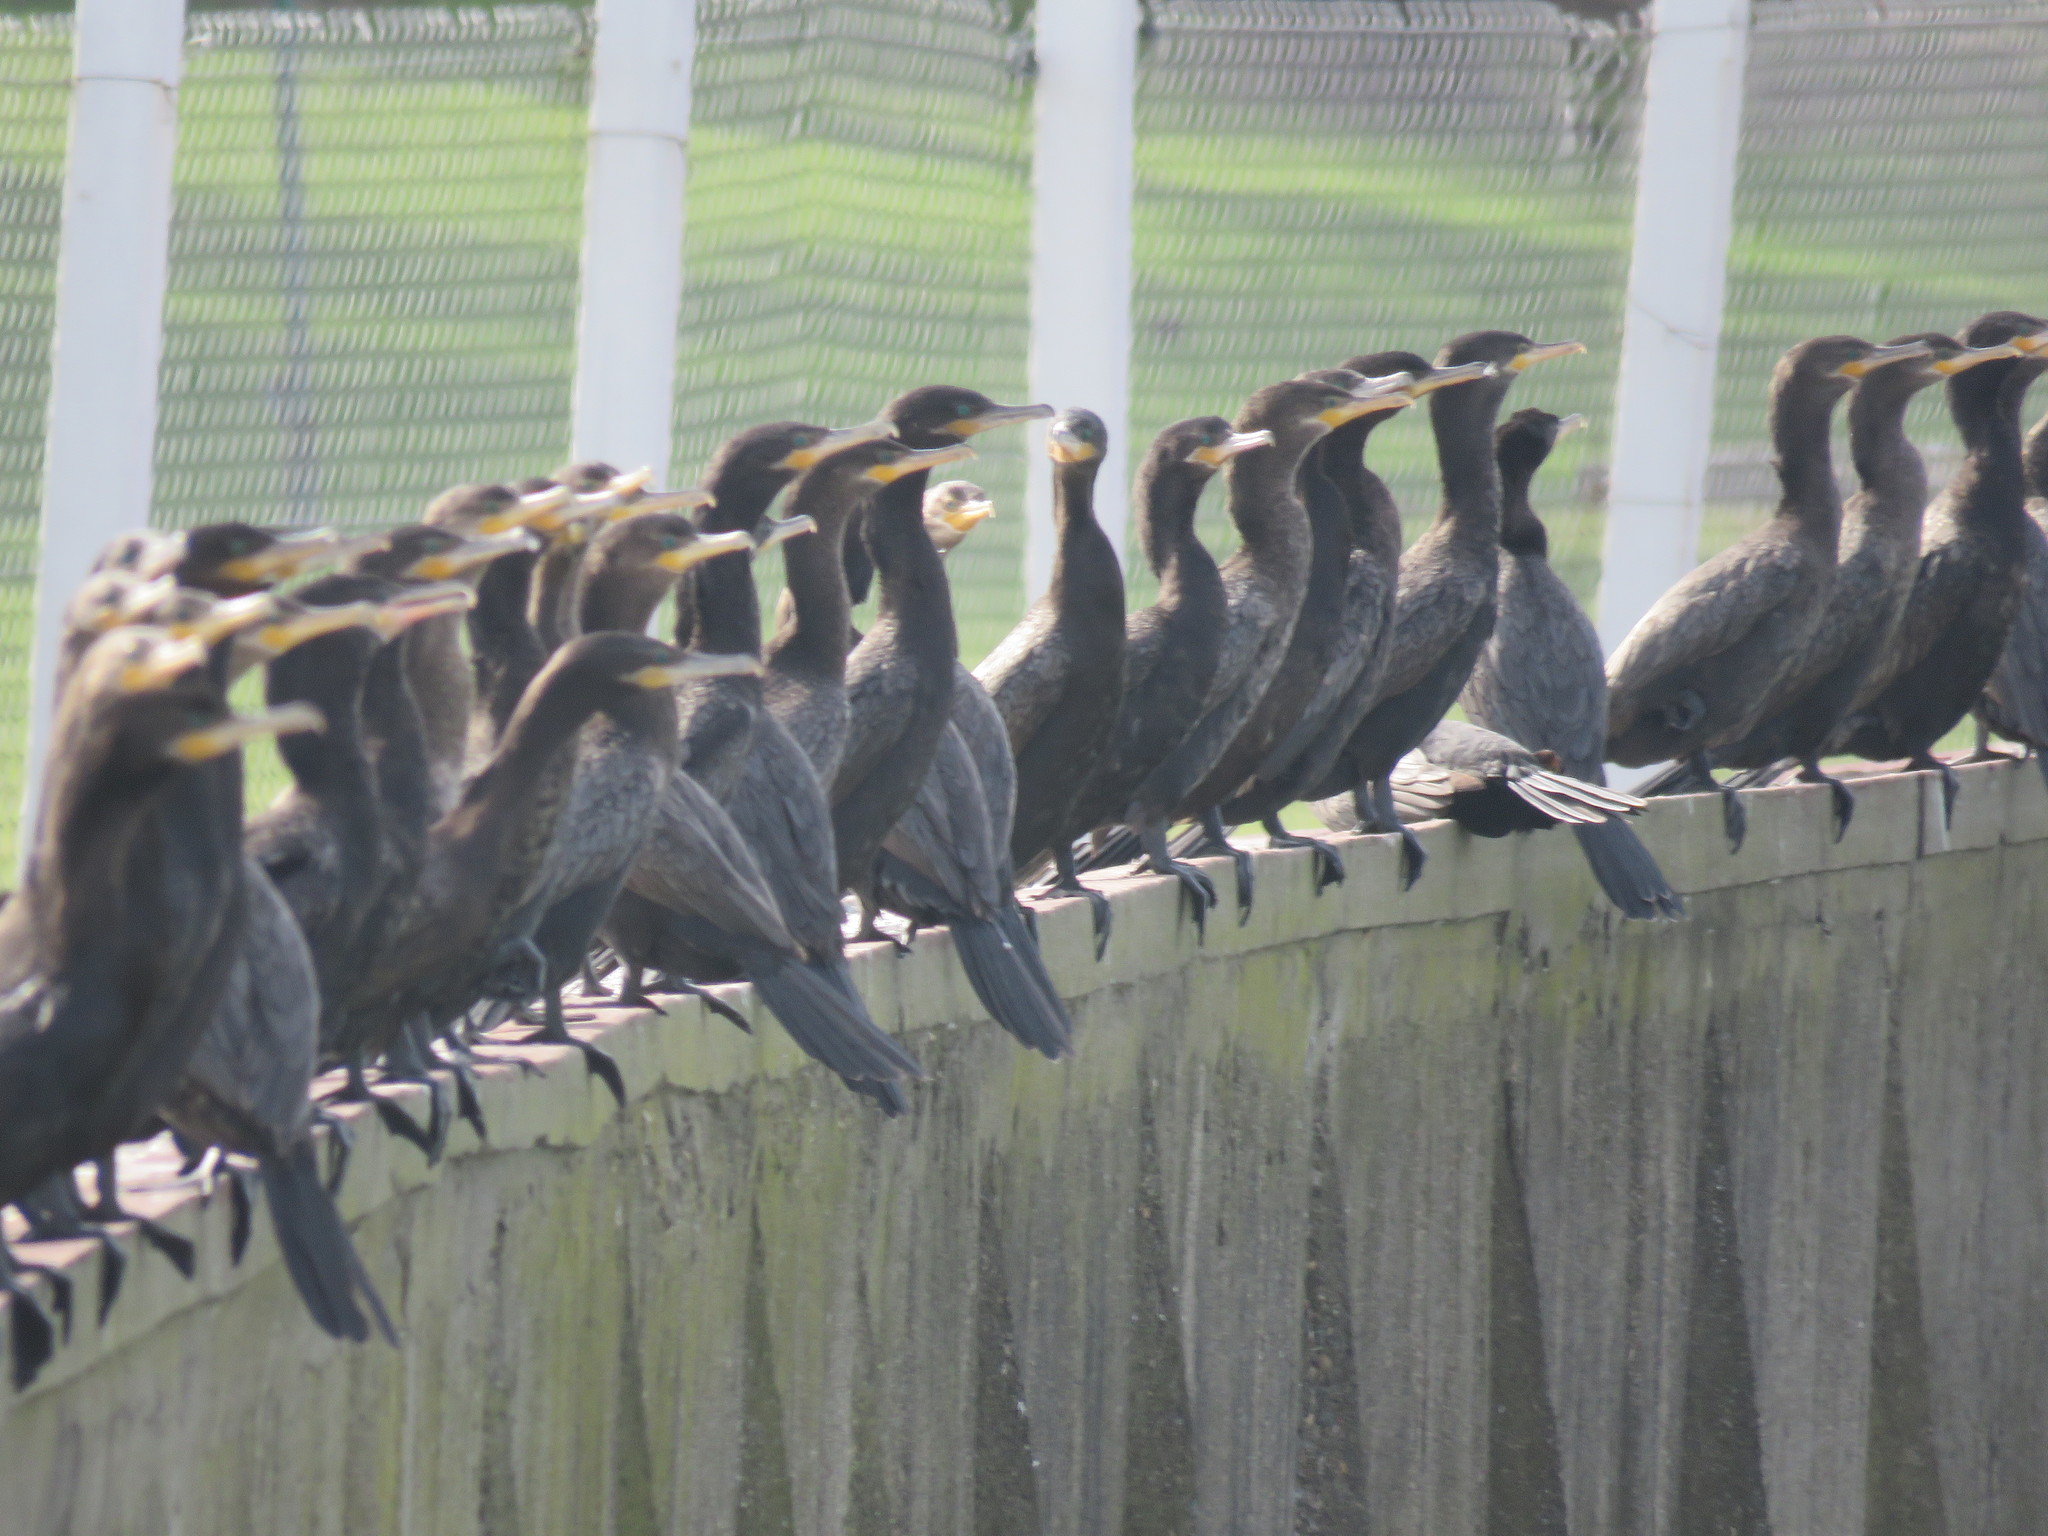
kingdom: Animalia
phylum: Chordata
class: Aves
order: Suliformes
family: Phalacrocoracidae
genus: Phalacrocorax
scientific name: Phalacrocorax brasilianus
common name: Neotropic cormorant
